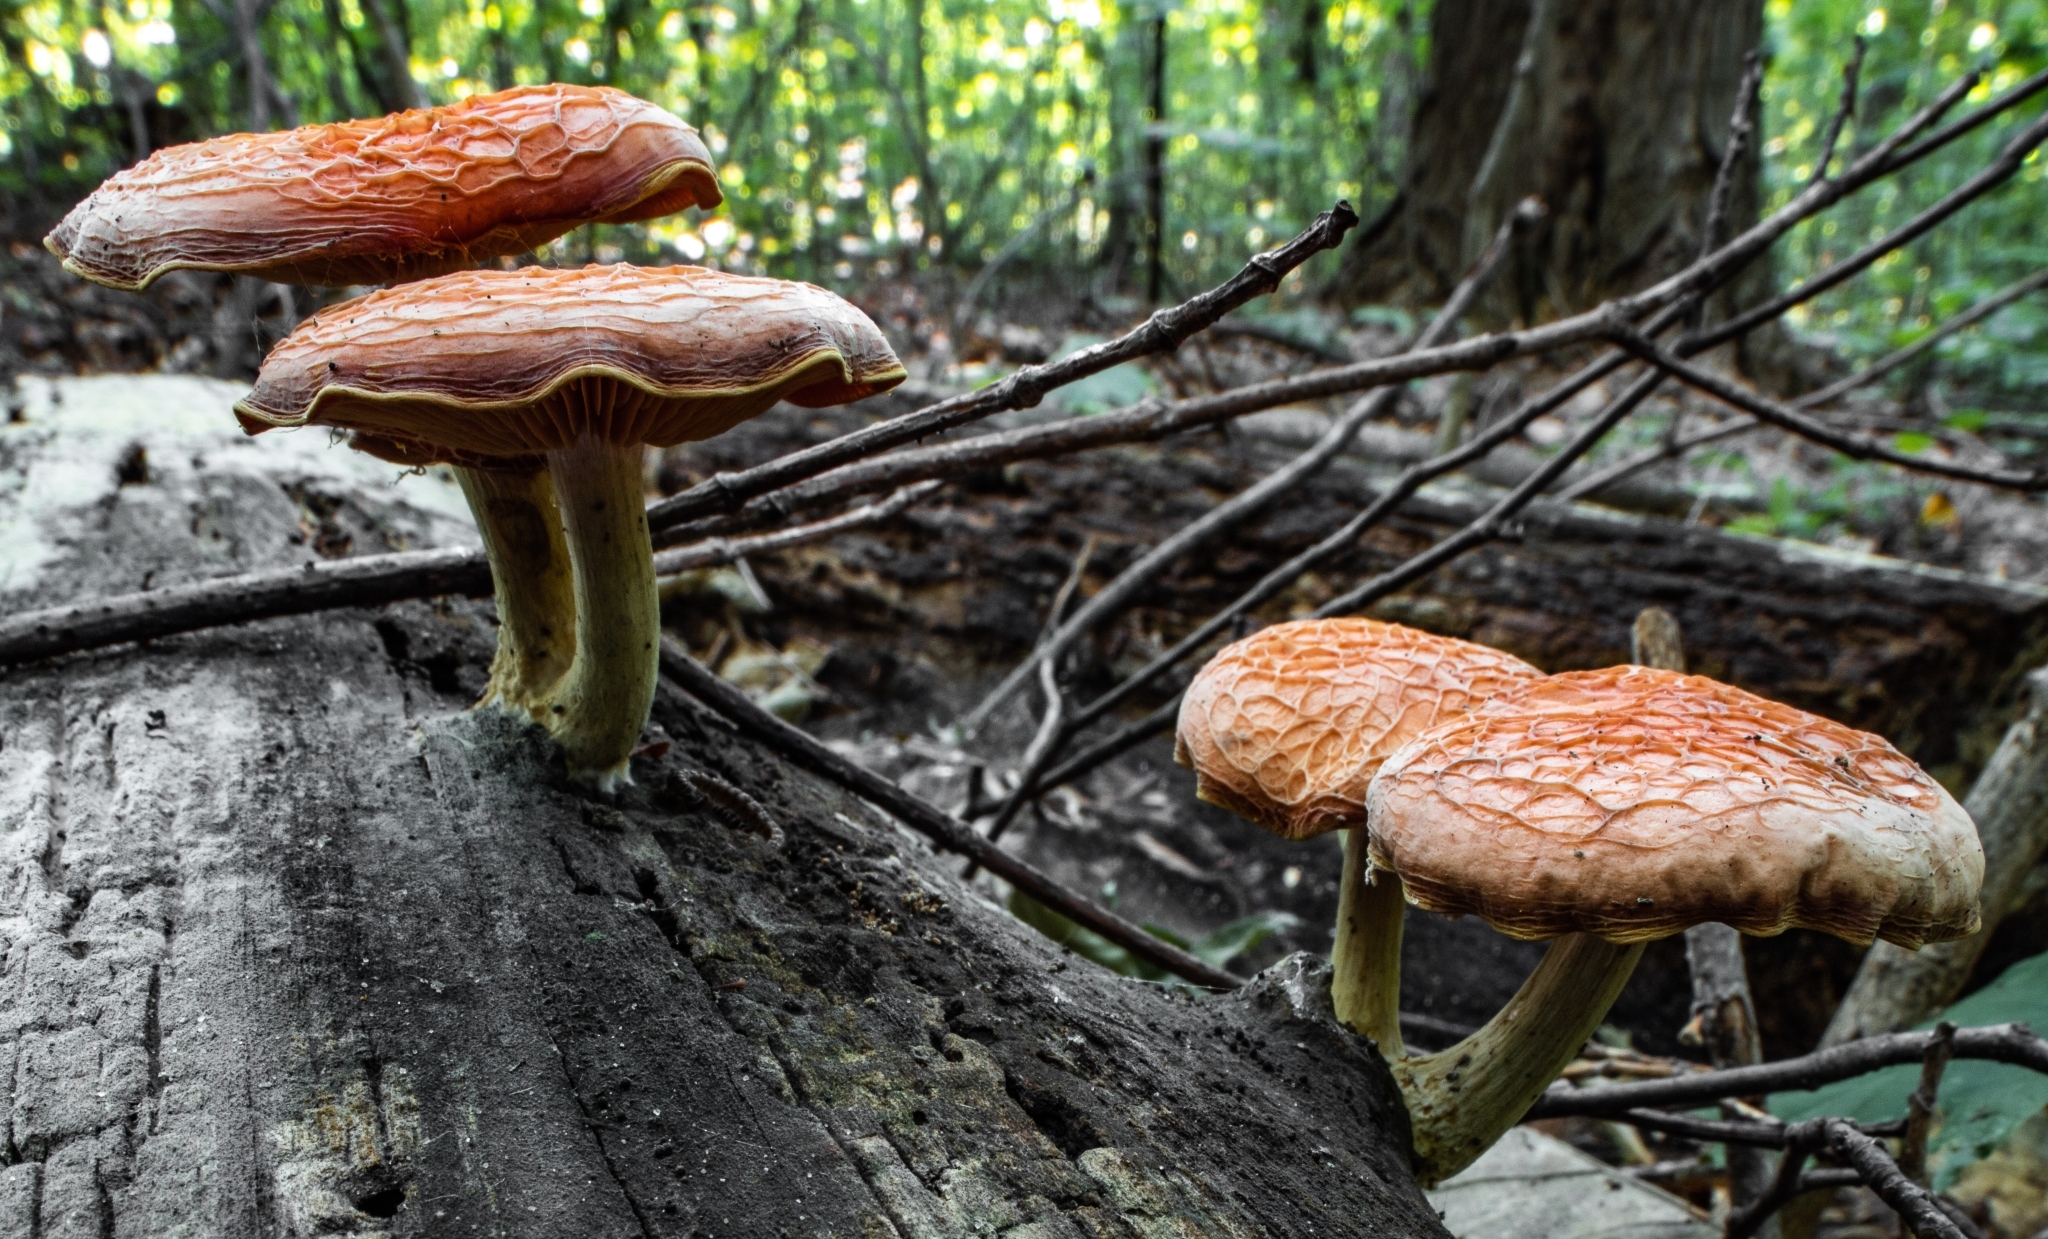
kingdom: Fungi
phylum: Basidiomycota
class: Agaricomycetes
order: Agaricales
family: Physalacriaceae
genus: Rhodotus
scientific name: Rhodotus palmatus
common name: Wrinkled peach
